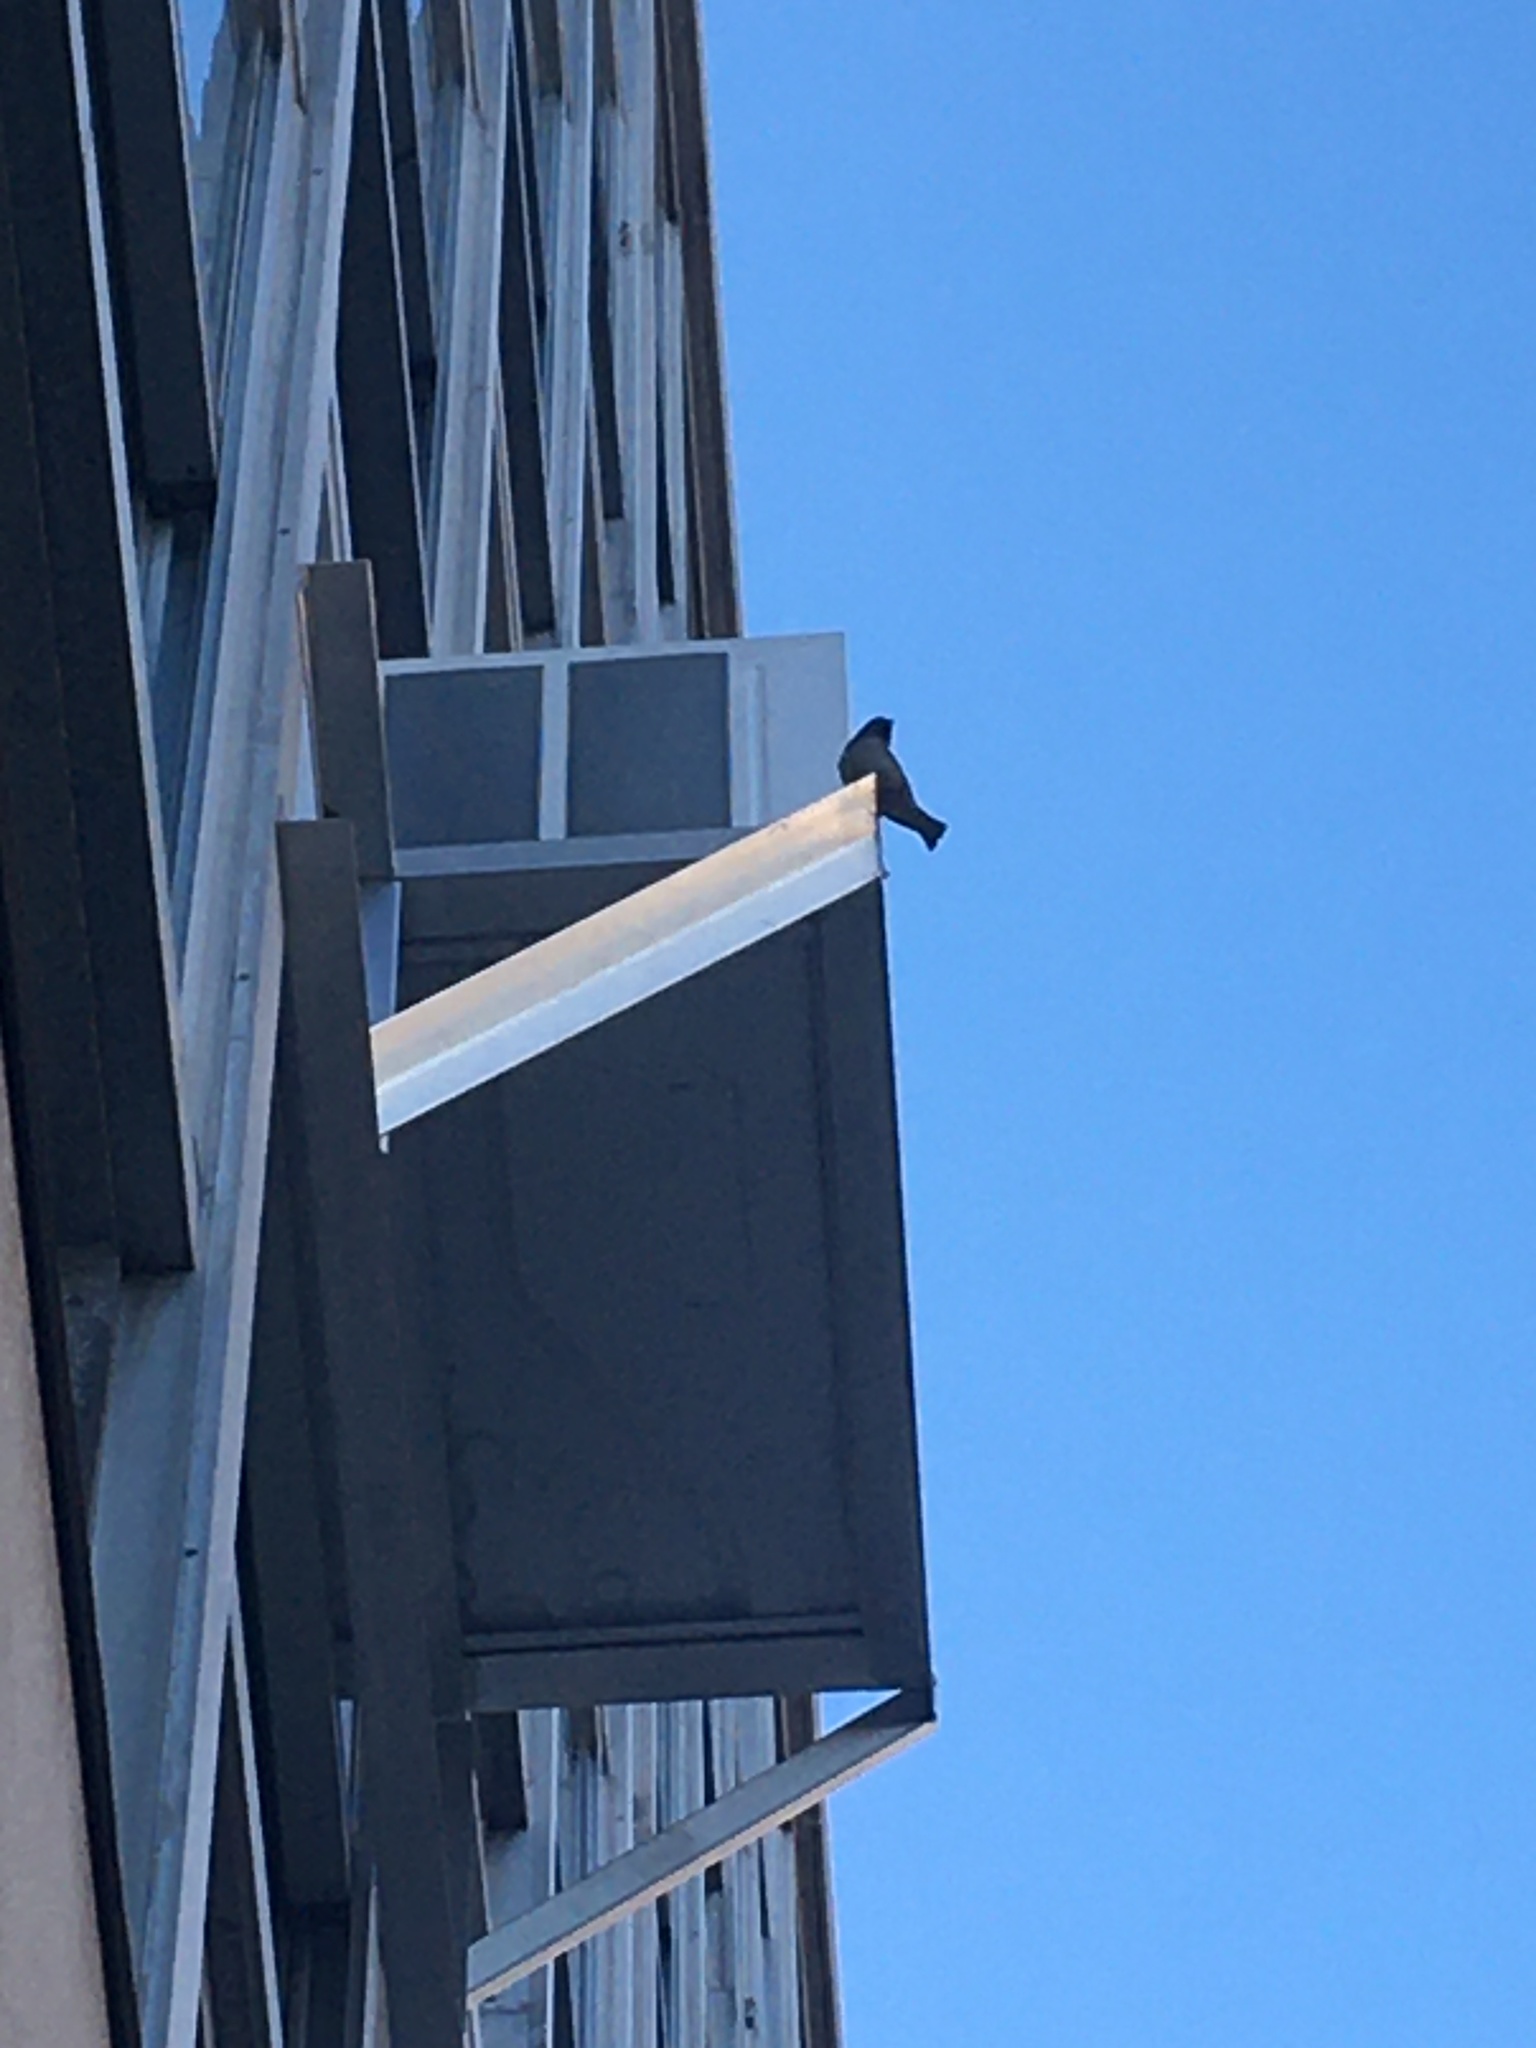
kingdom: Animalia
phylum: Chordata
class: Aves
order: Passeriformes
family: Passeridae
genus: Passer
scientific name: Passer domesticus
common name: House sparrow
